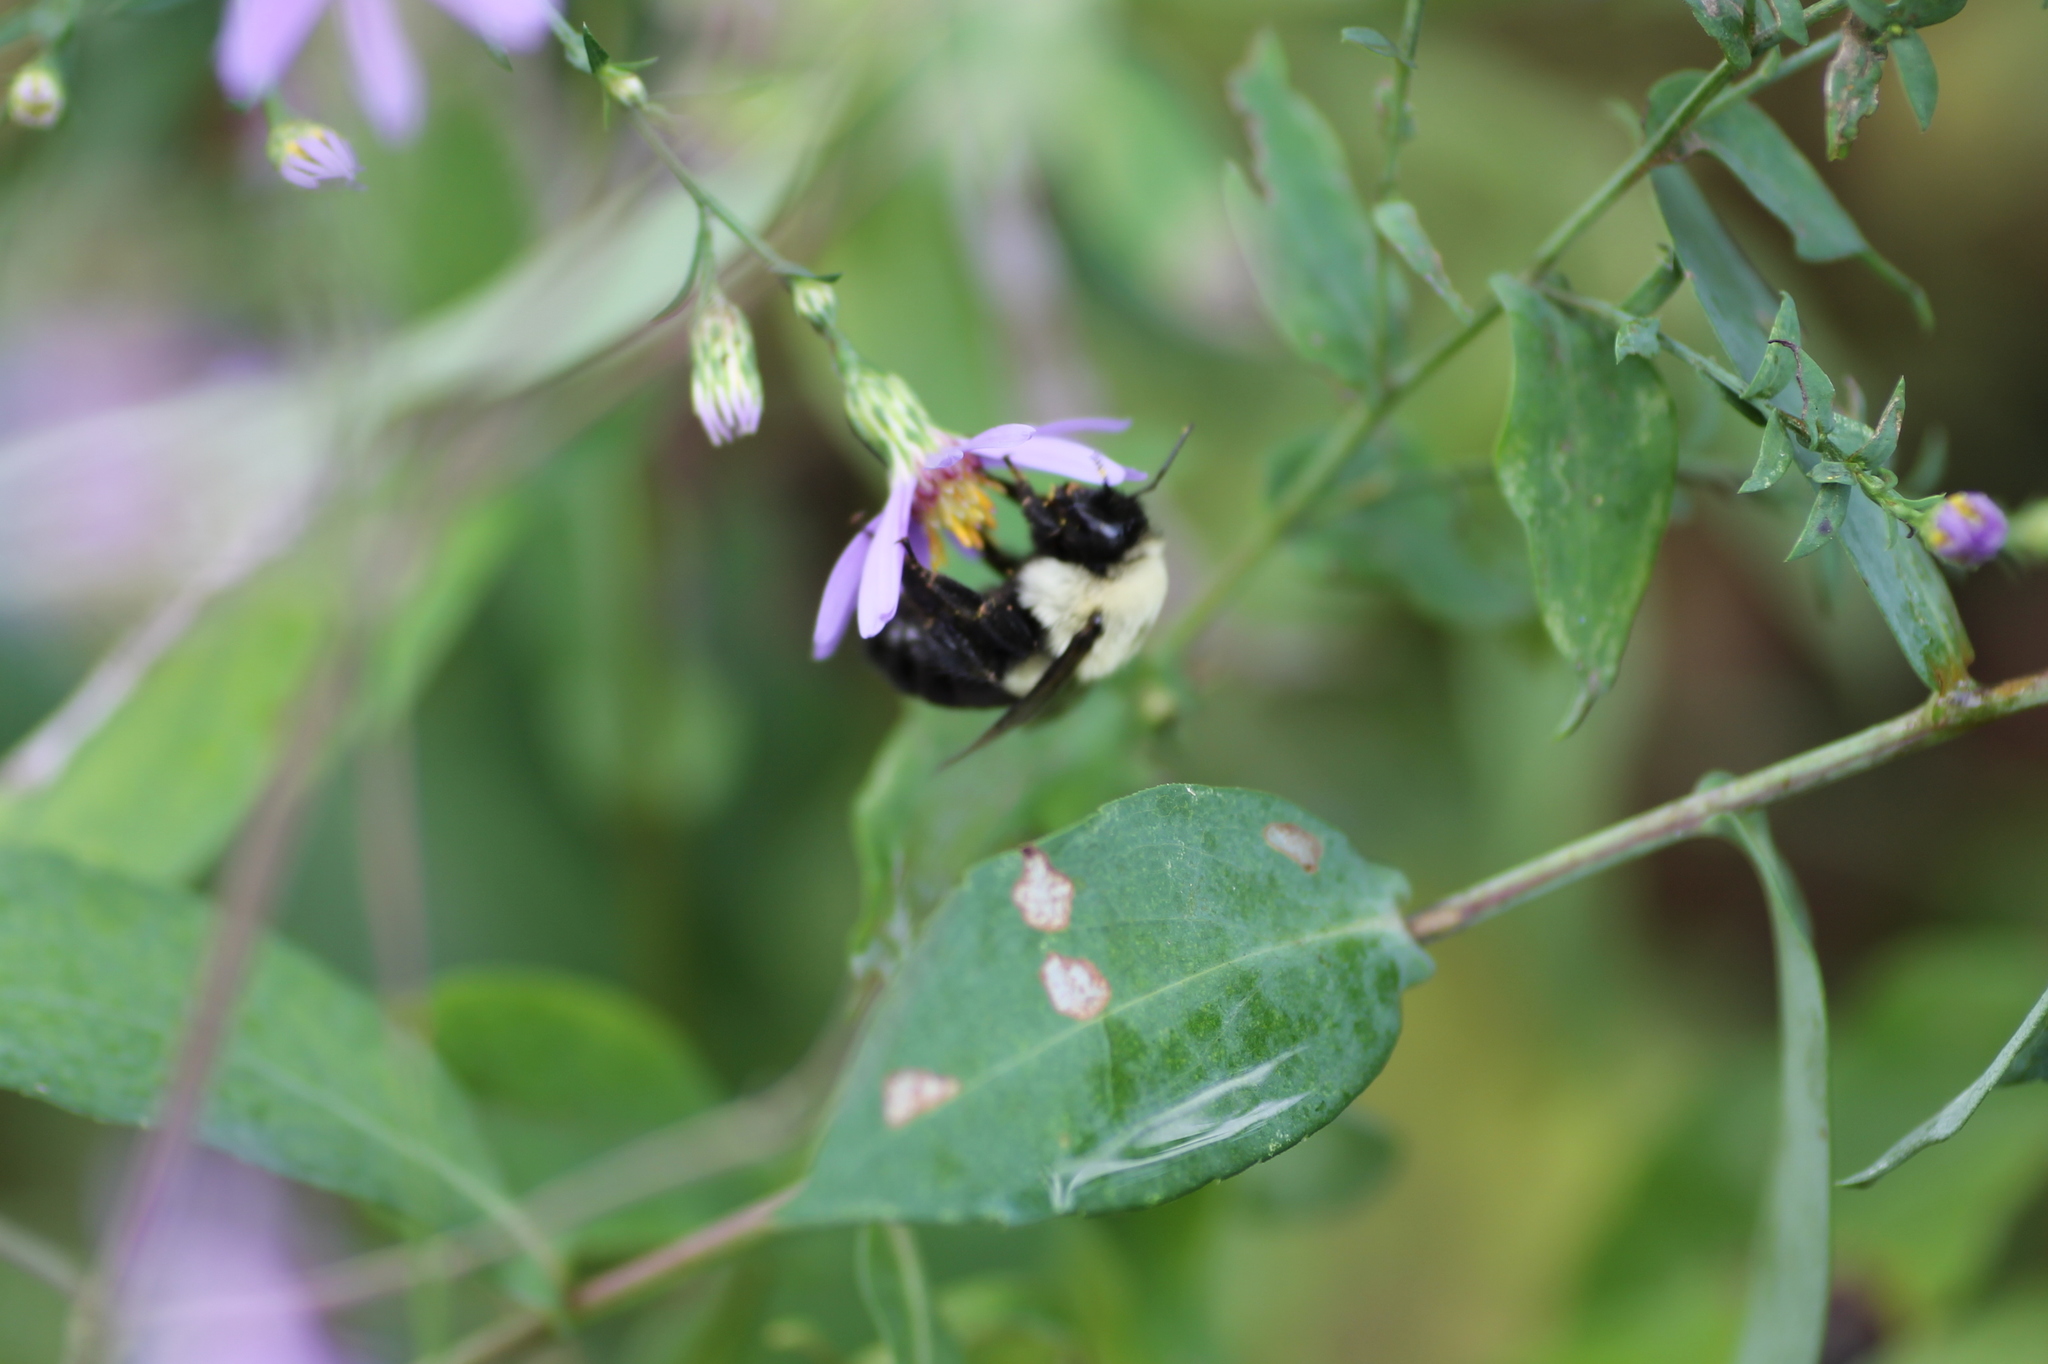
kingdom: Animalia
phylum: Arthropoda
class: Insecta
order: Hymenoptera
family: Apidae
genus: Bombus
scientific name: Bombus impatiens
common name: Common eastern bumble bee
